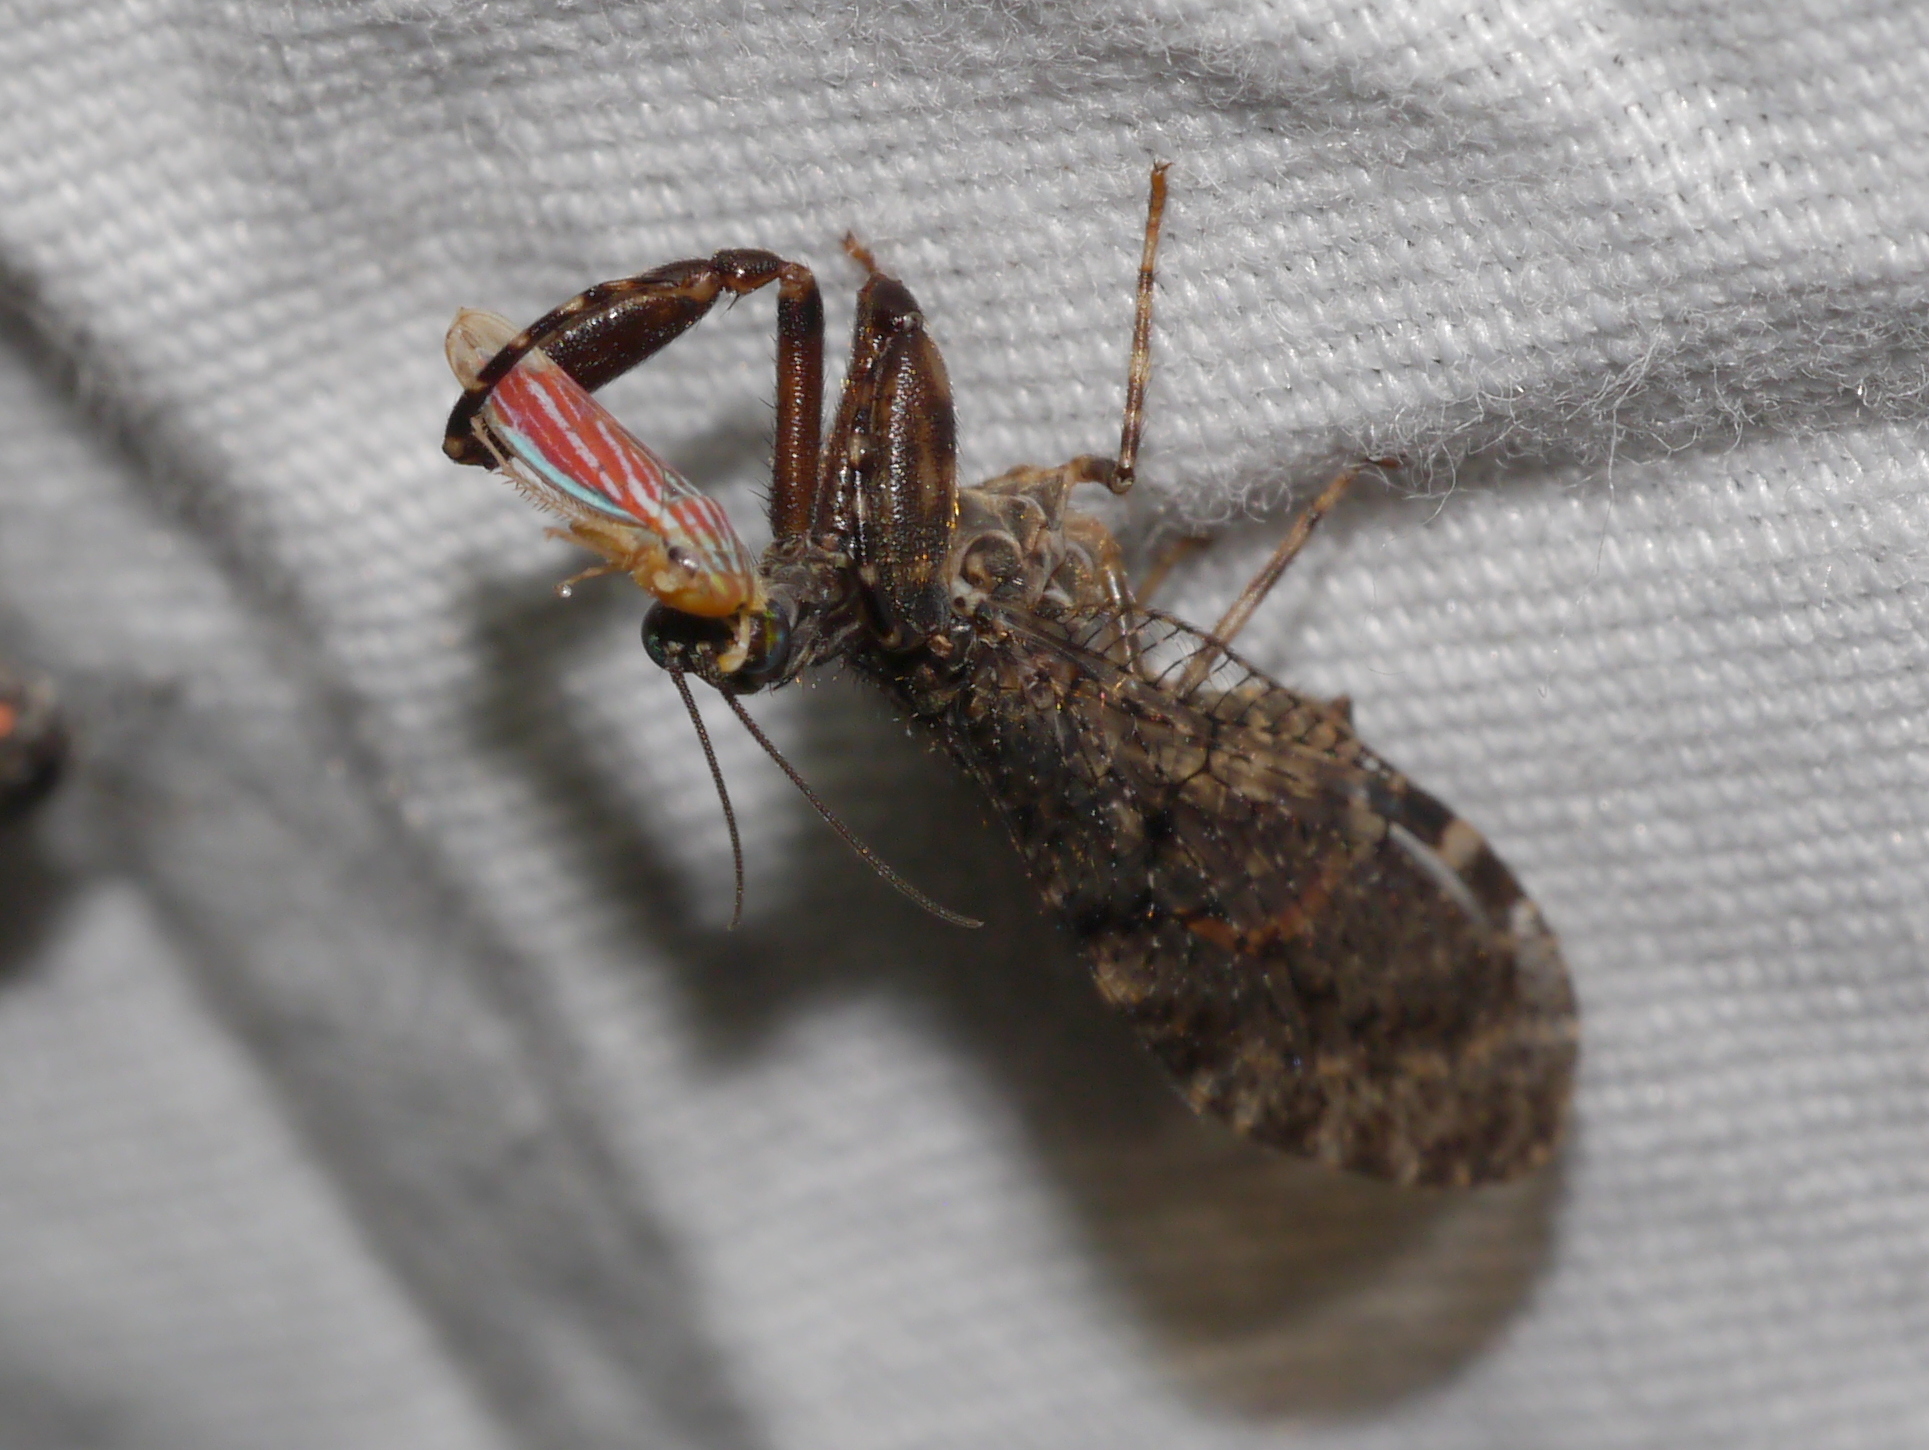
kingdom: Animalia
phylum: Arthropoda
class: Insecta
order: Hemiptera
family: Cicadellidae
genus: Sibovia
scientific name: Sibovia compta
